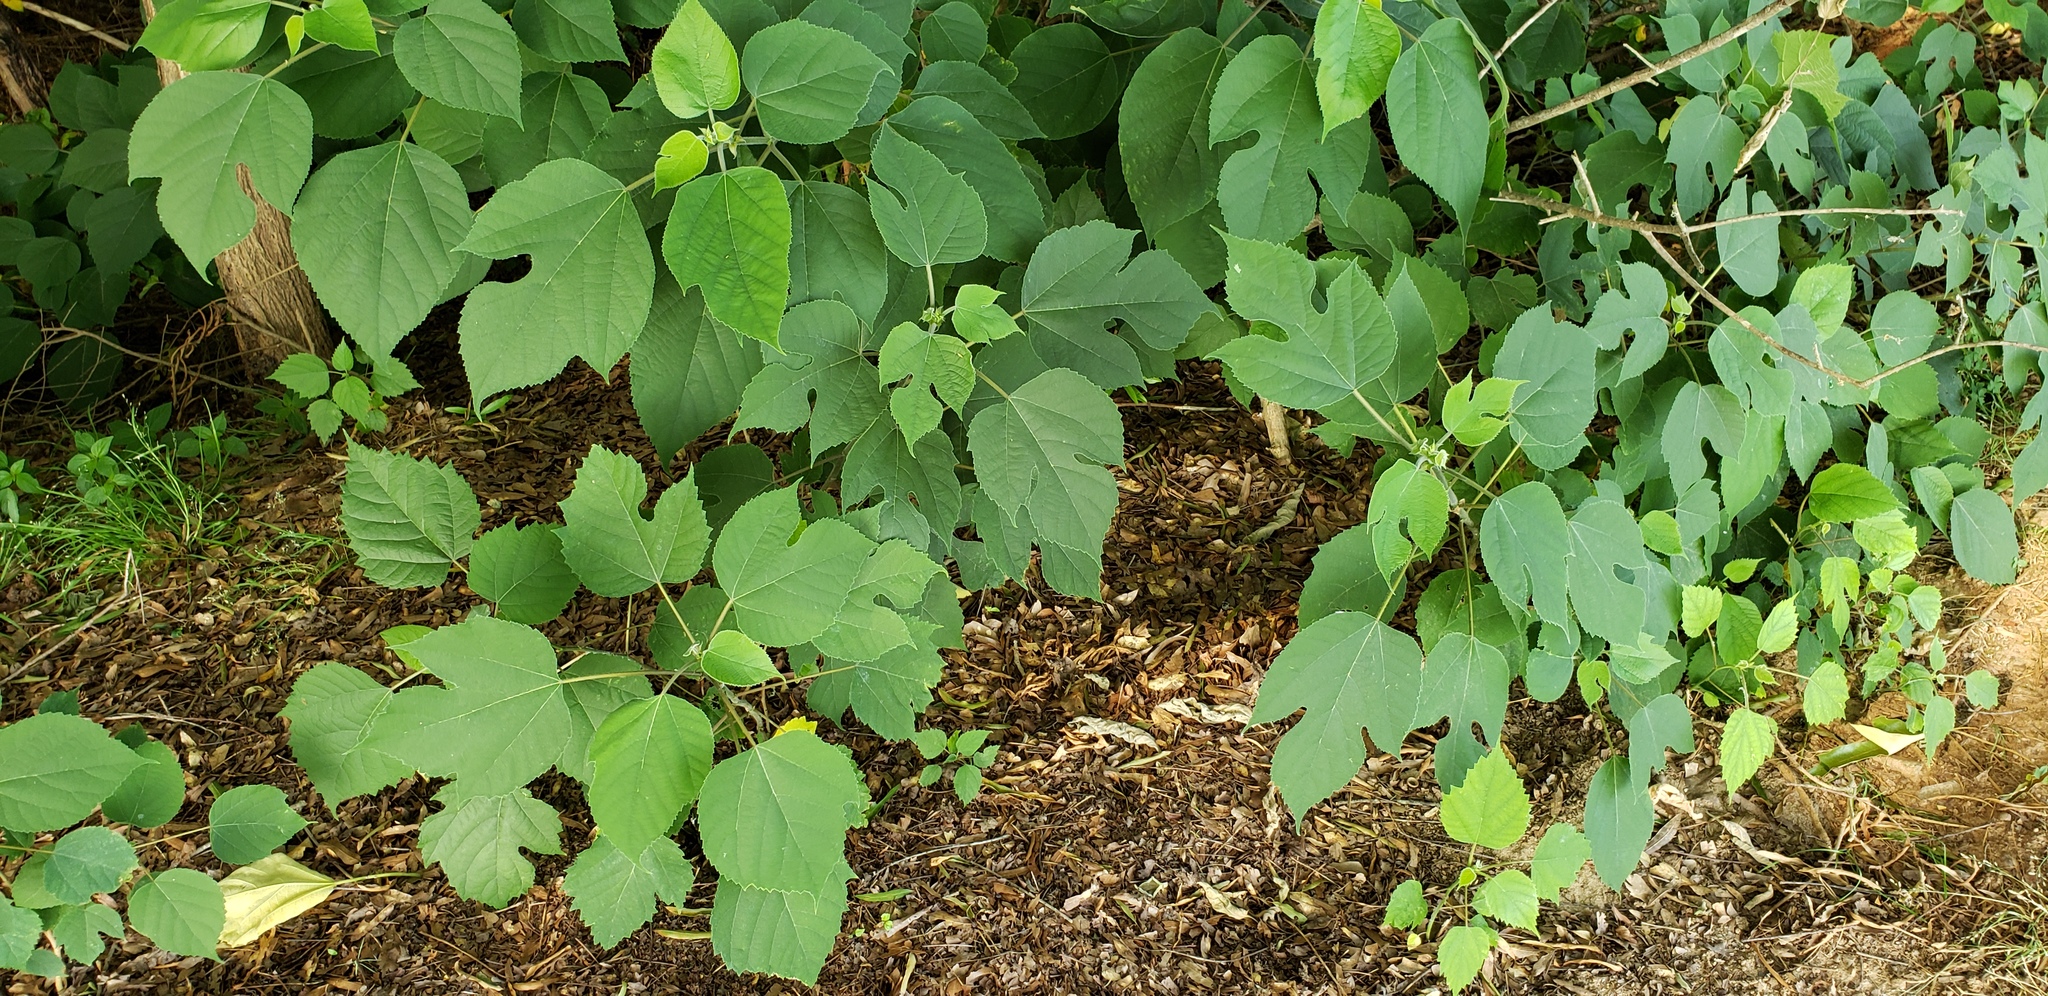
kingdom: Plantae
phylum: Tracheophyta
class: Magnoliopsida
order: Rosales
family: Moraceae
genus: Broussonetia
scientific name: Broussonetia papyrifera
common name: Paper mulberry
